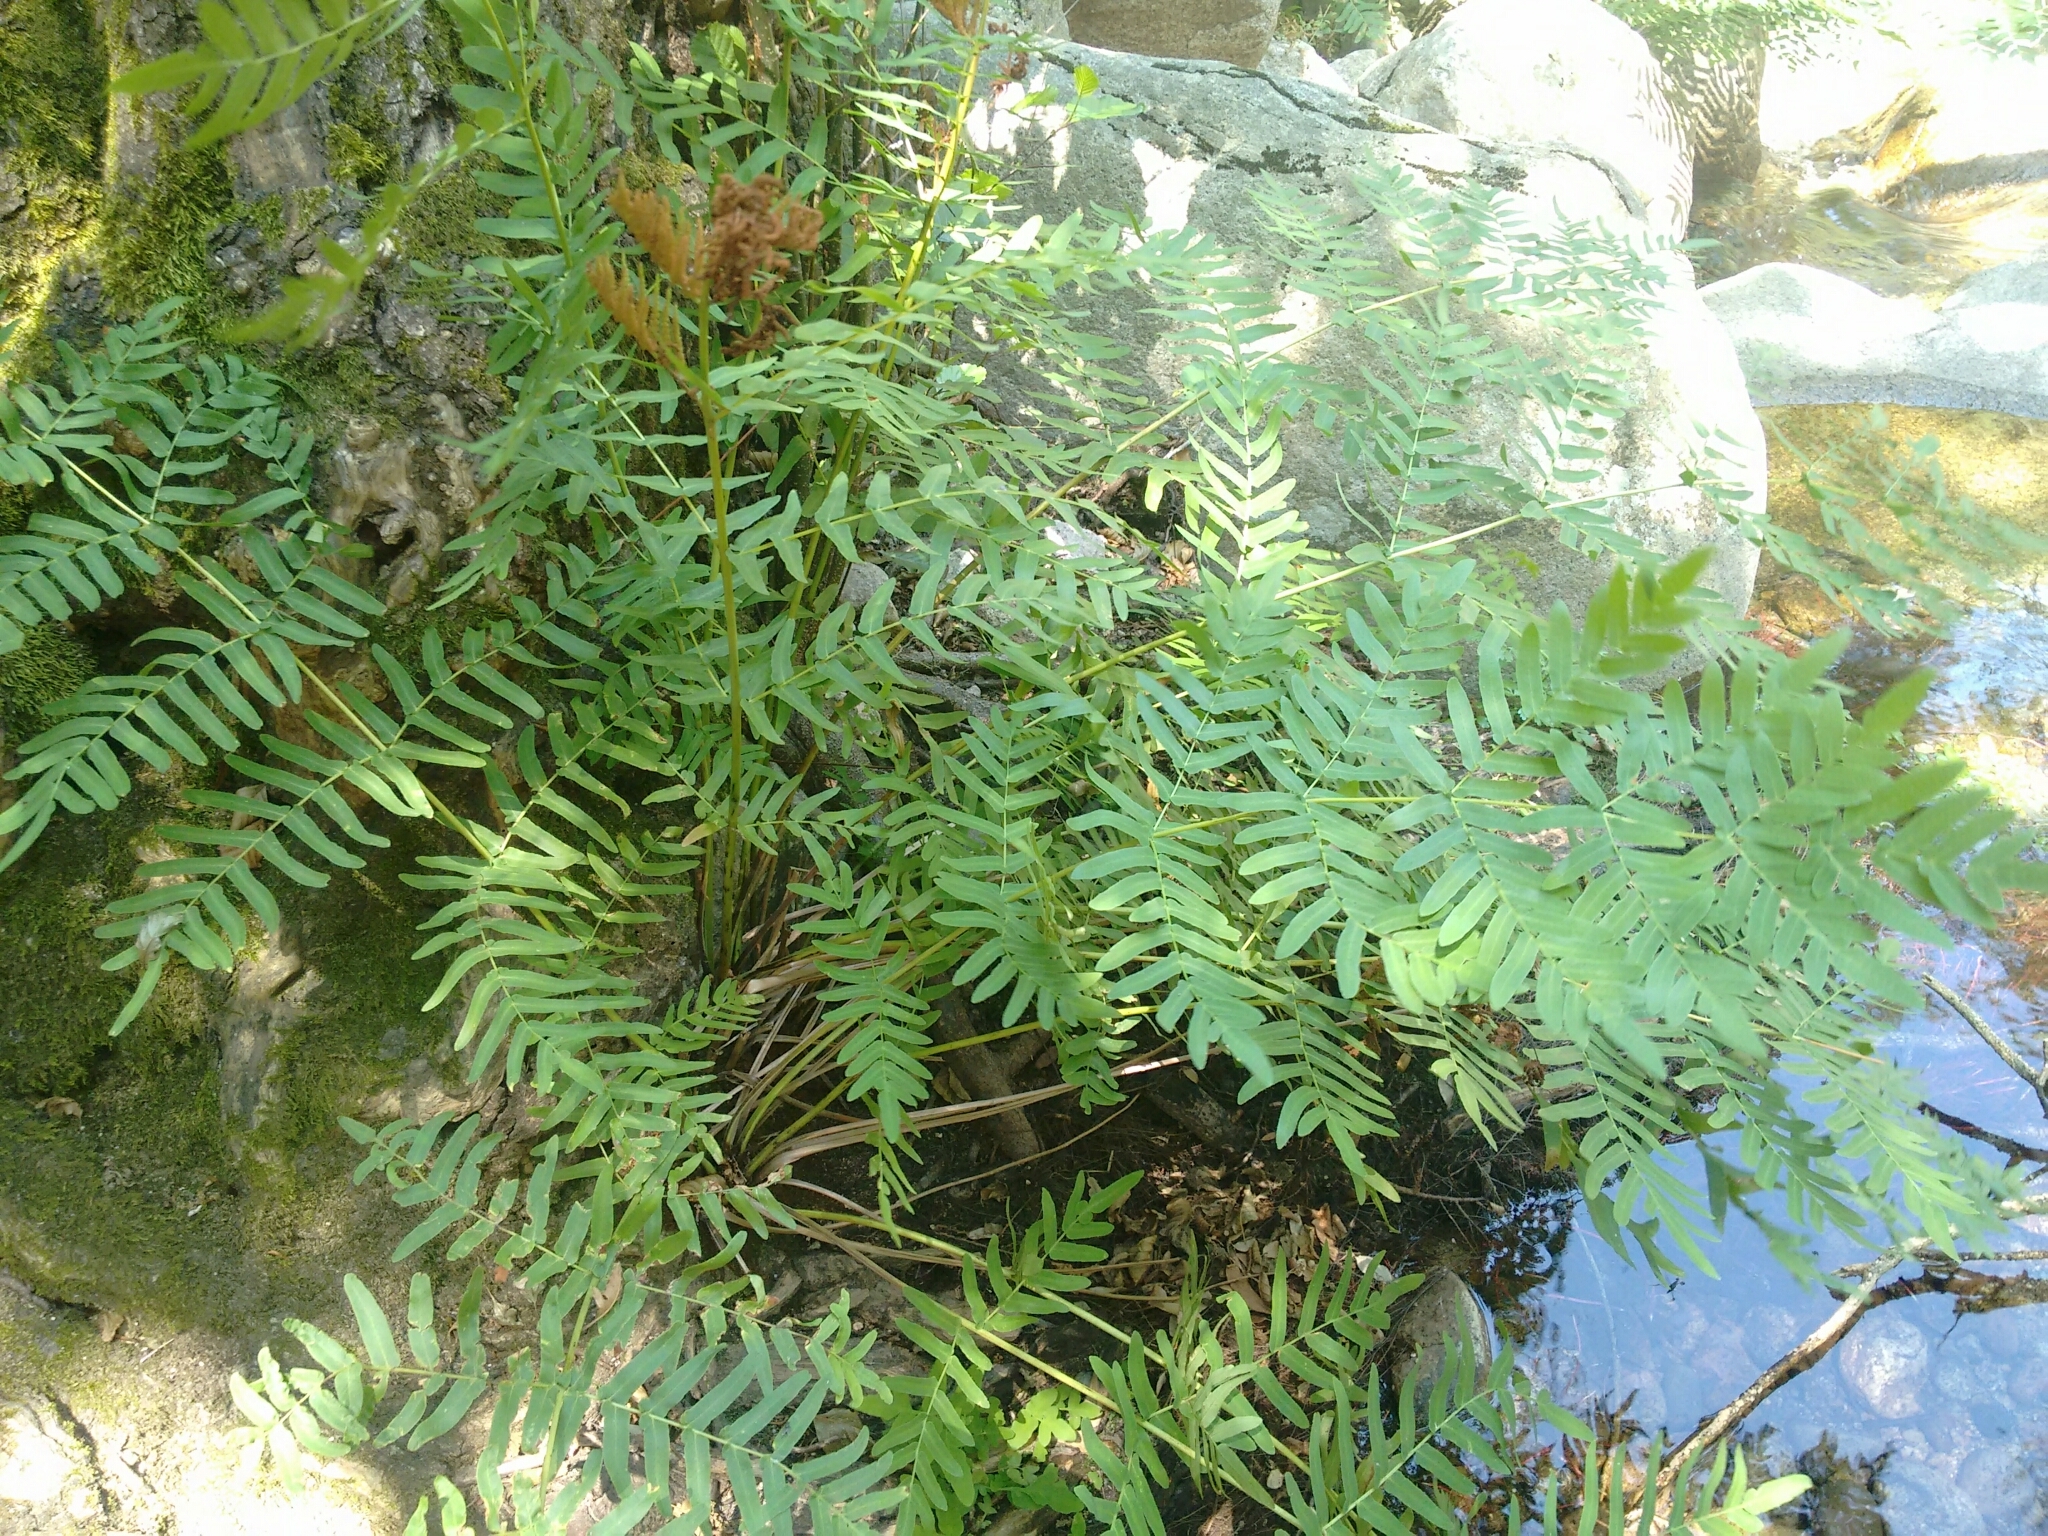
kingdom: Plantae
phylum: Tracheophyta
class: Polypodiopsida
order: Osmundales
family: Osmundaceae
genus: Osmunda
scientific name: Osmunda regalis
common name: Royal fern
